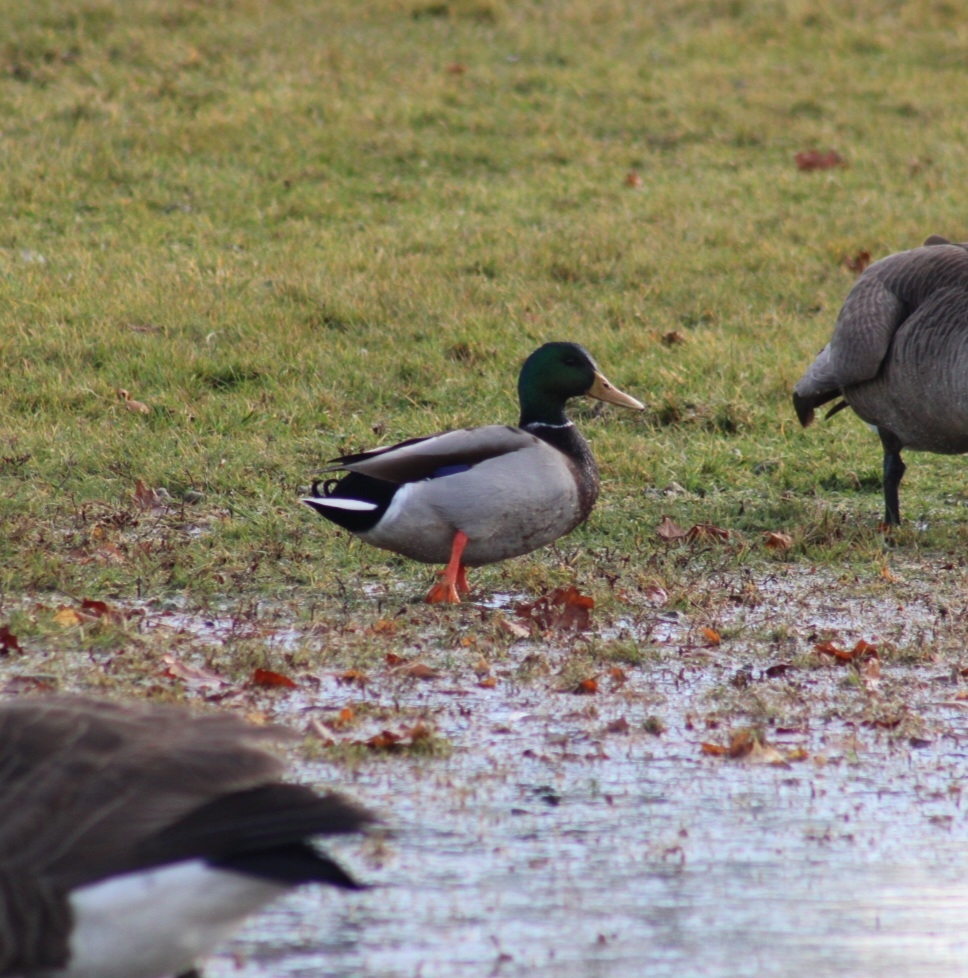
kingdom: Animalia
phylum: Chordata
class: Aves
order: Anseriformes
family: Anatidae
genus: Anas
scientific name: Anas platyrhynchos
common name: Mallard
